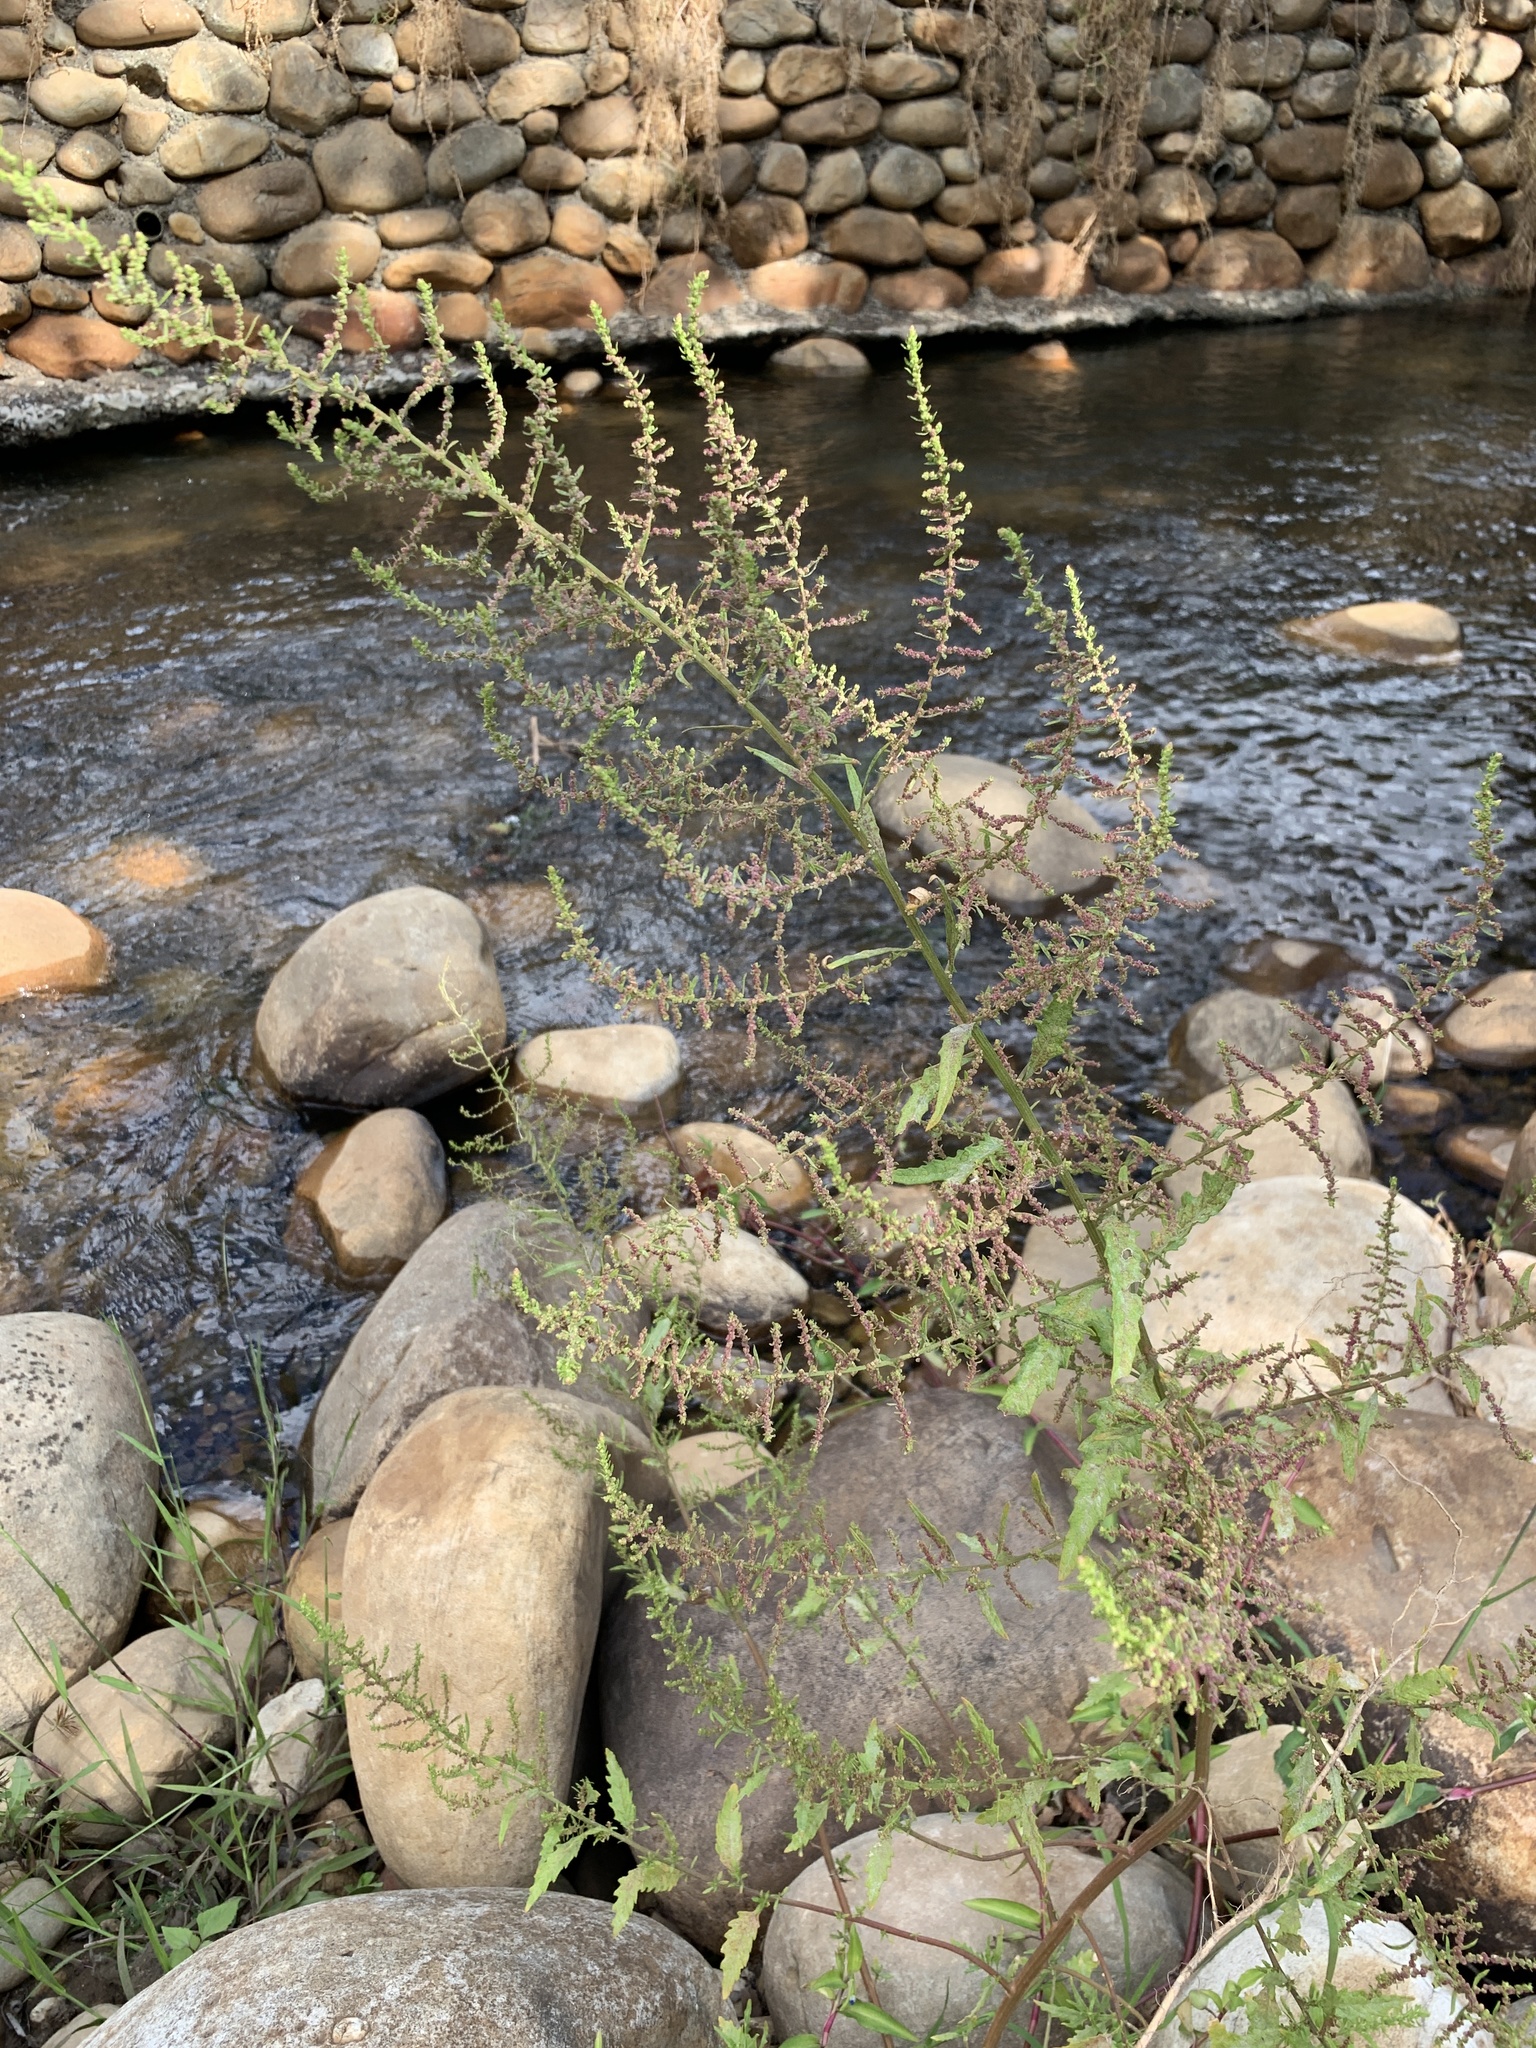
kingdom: Plantae
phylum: Tracheophyta
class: Magnoliopsida
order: Caryophyllales
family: Amaranthaceae
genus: Dysphania
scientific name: Dysphania ambrosioides
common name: Wormseed
